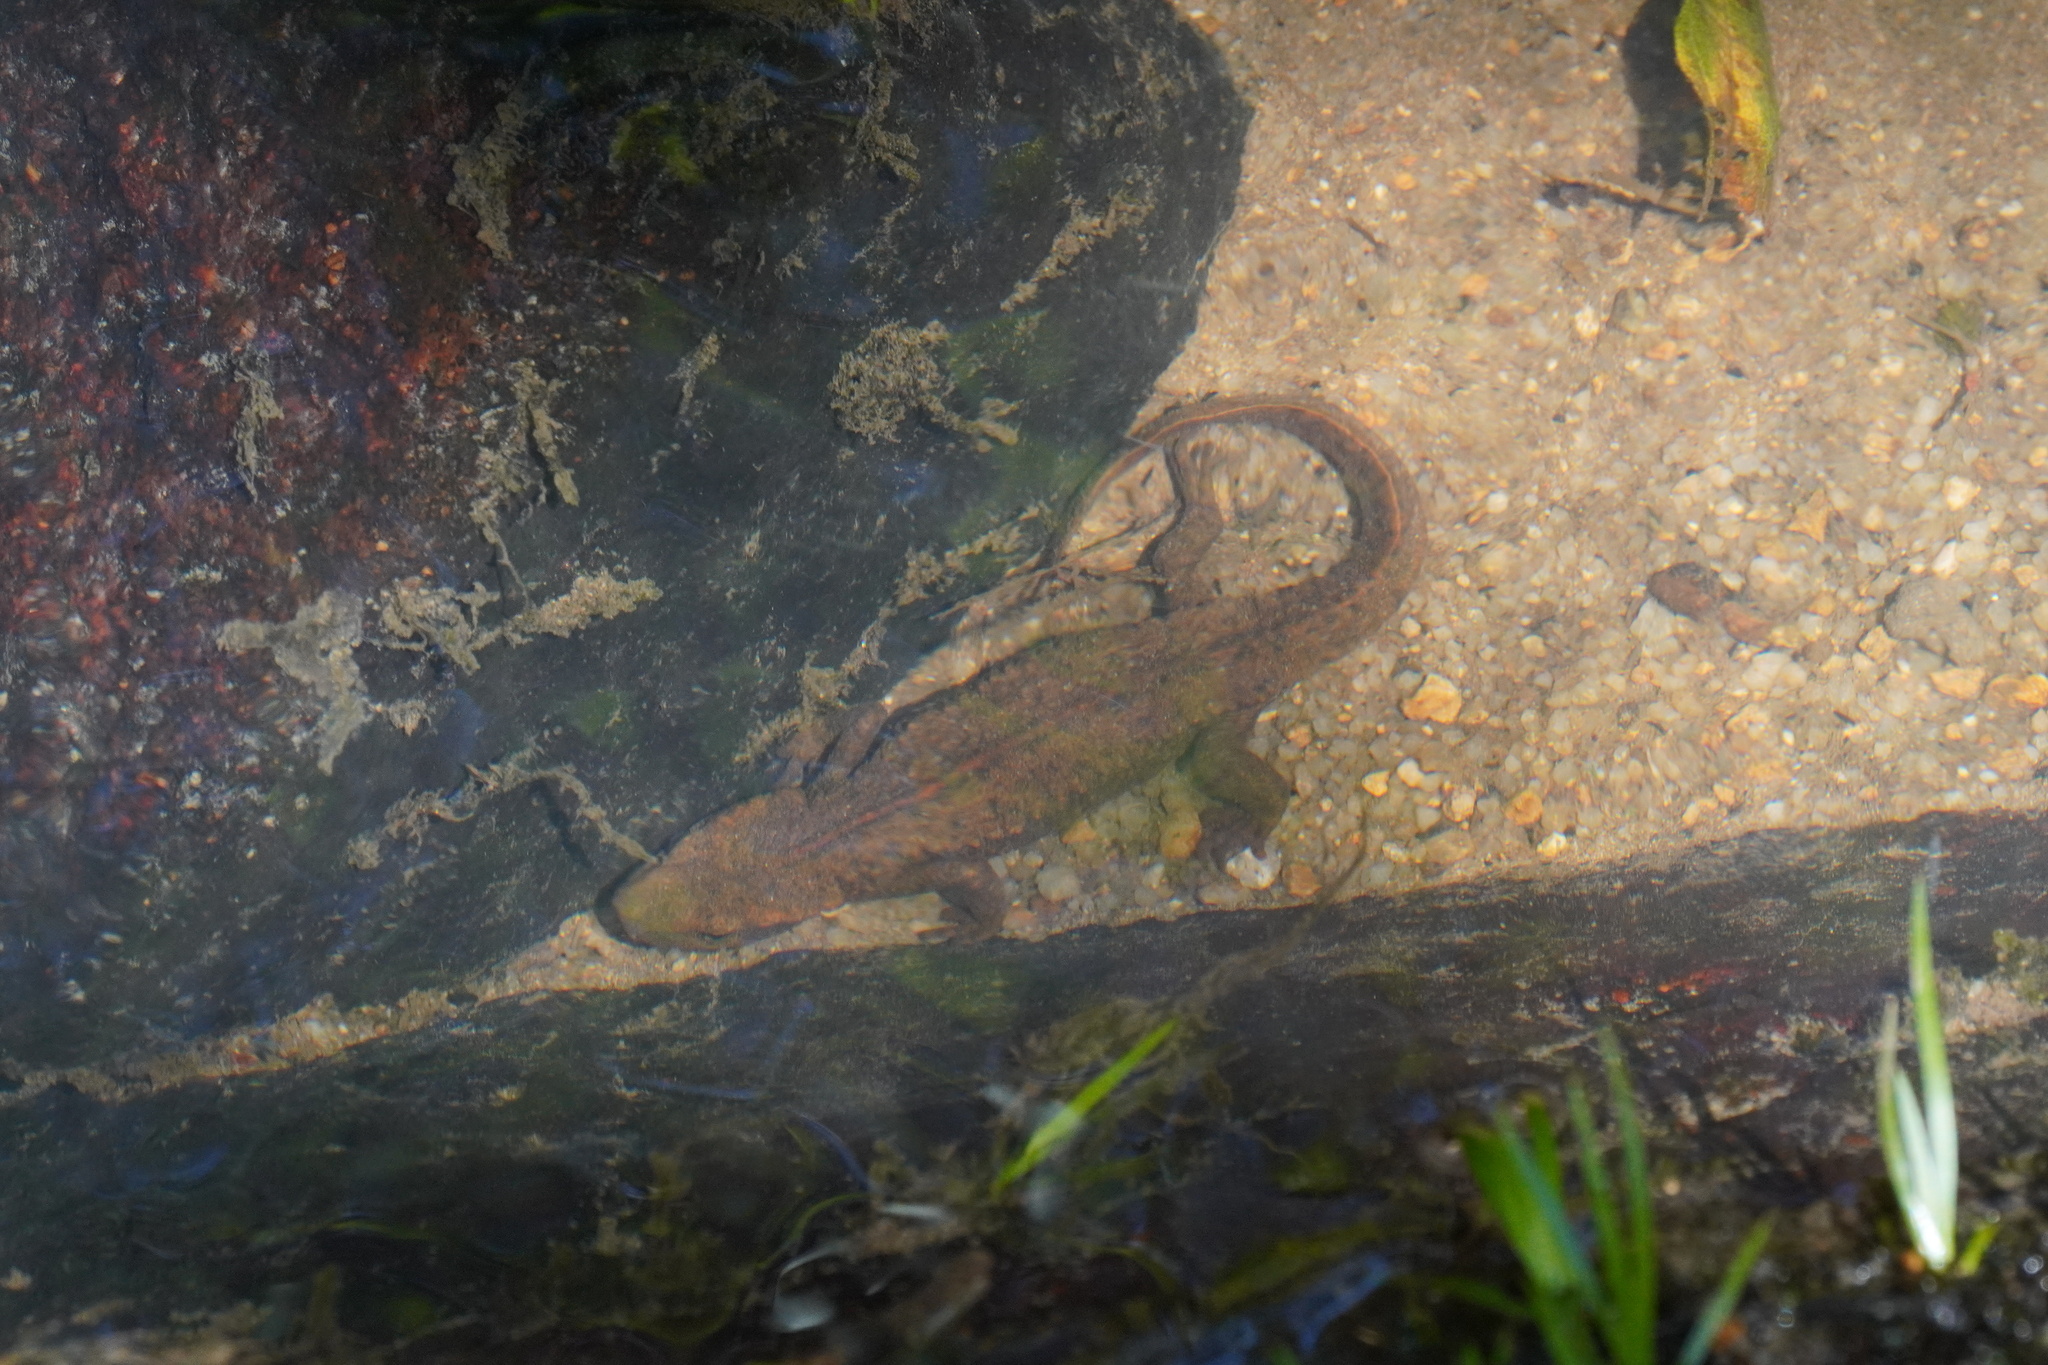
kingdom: Animalia
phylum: Chordata
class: Amphibia
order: Caudata
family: Salamandridae
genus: Paramesotriton
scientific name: Paramesotriton hongkongensis
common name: Hong kong warty newt
